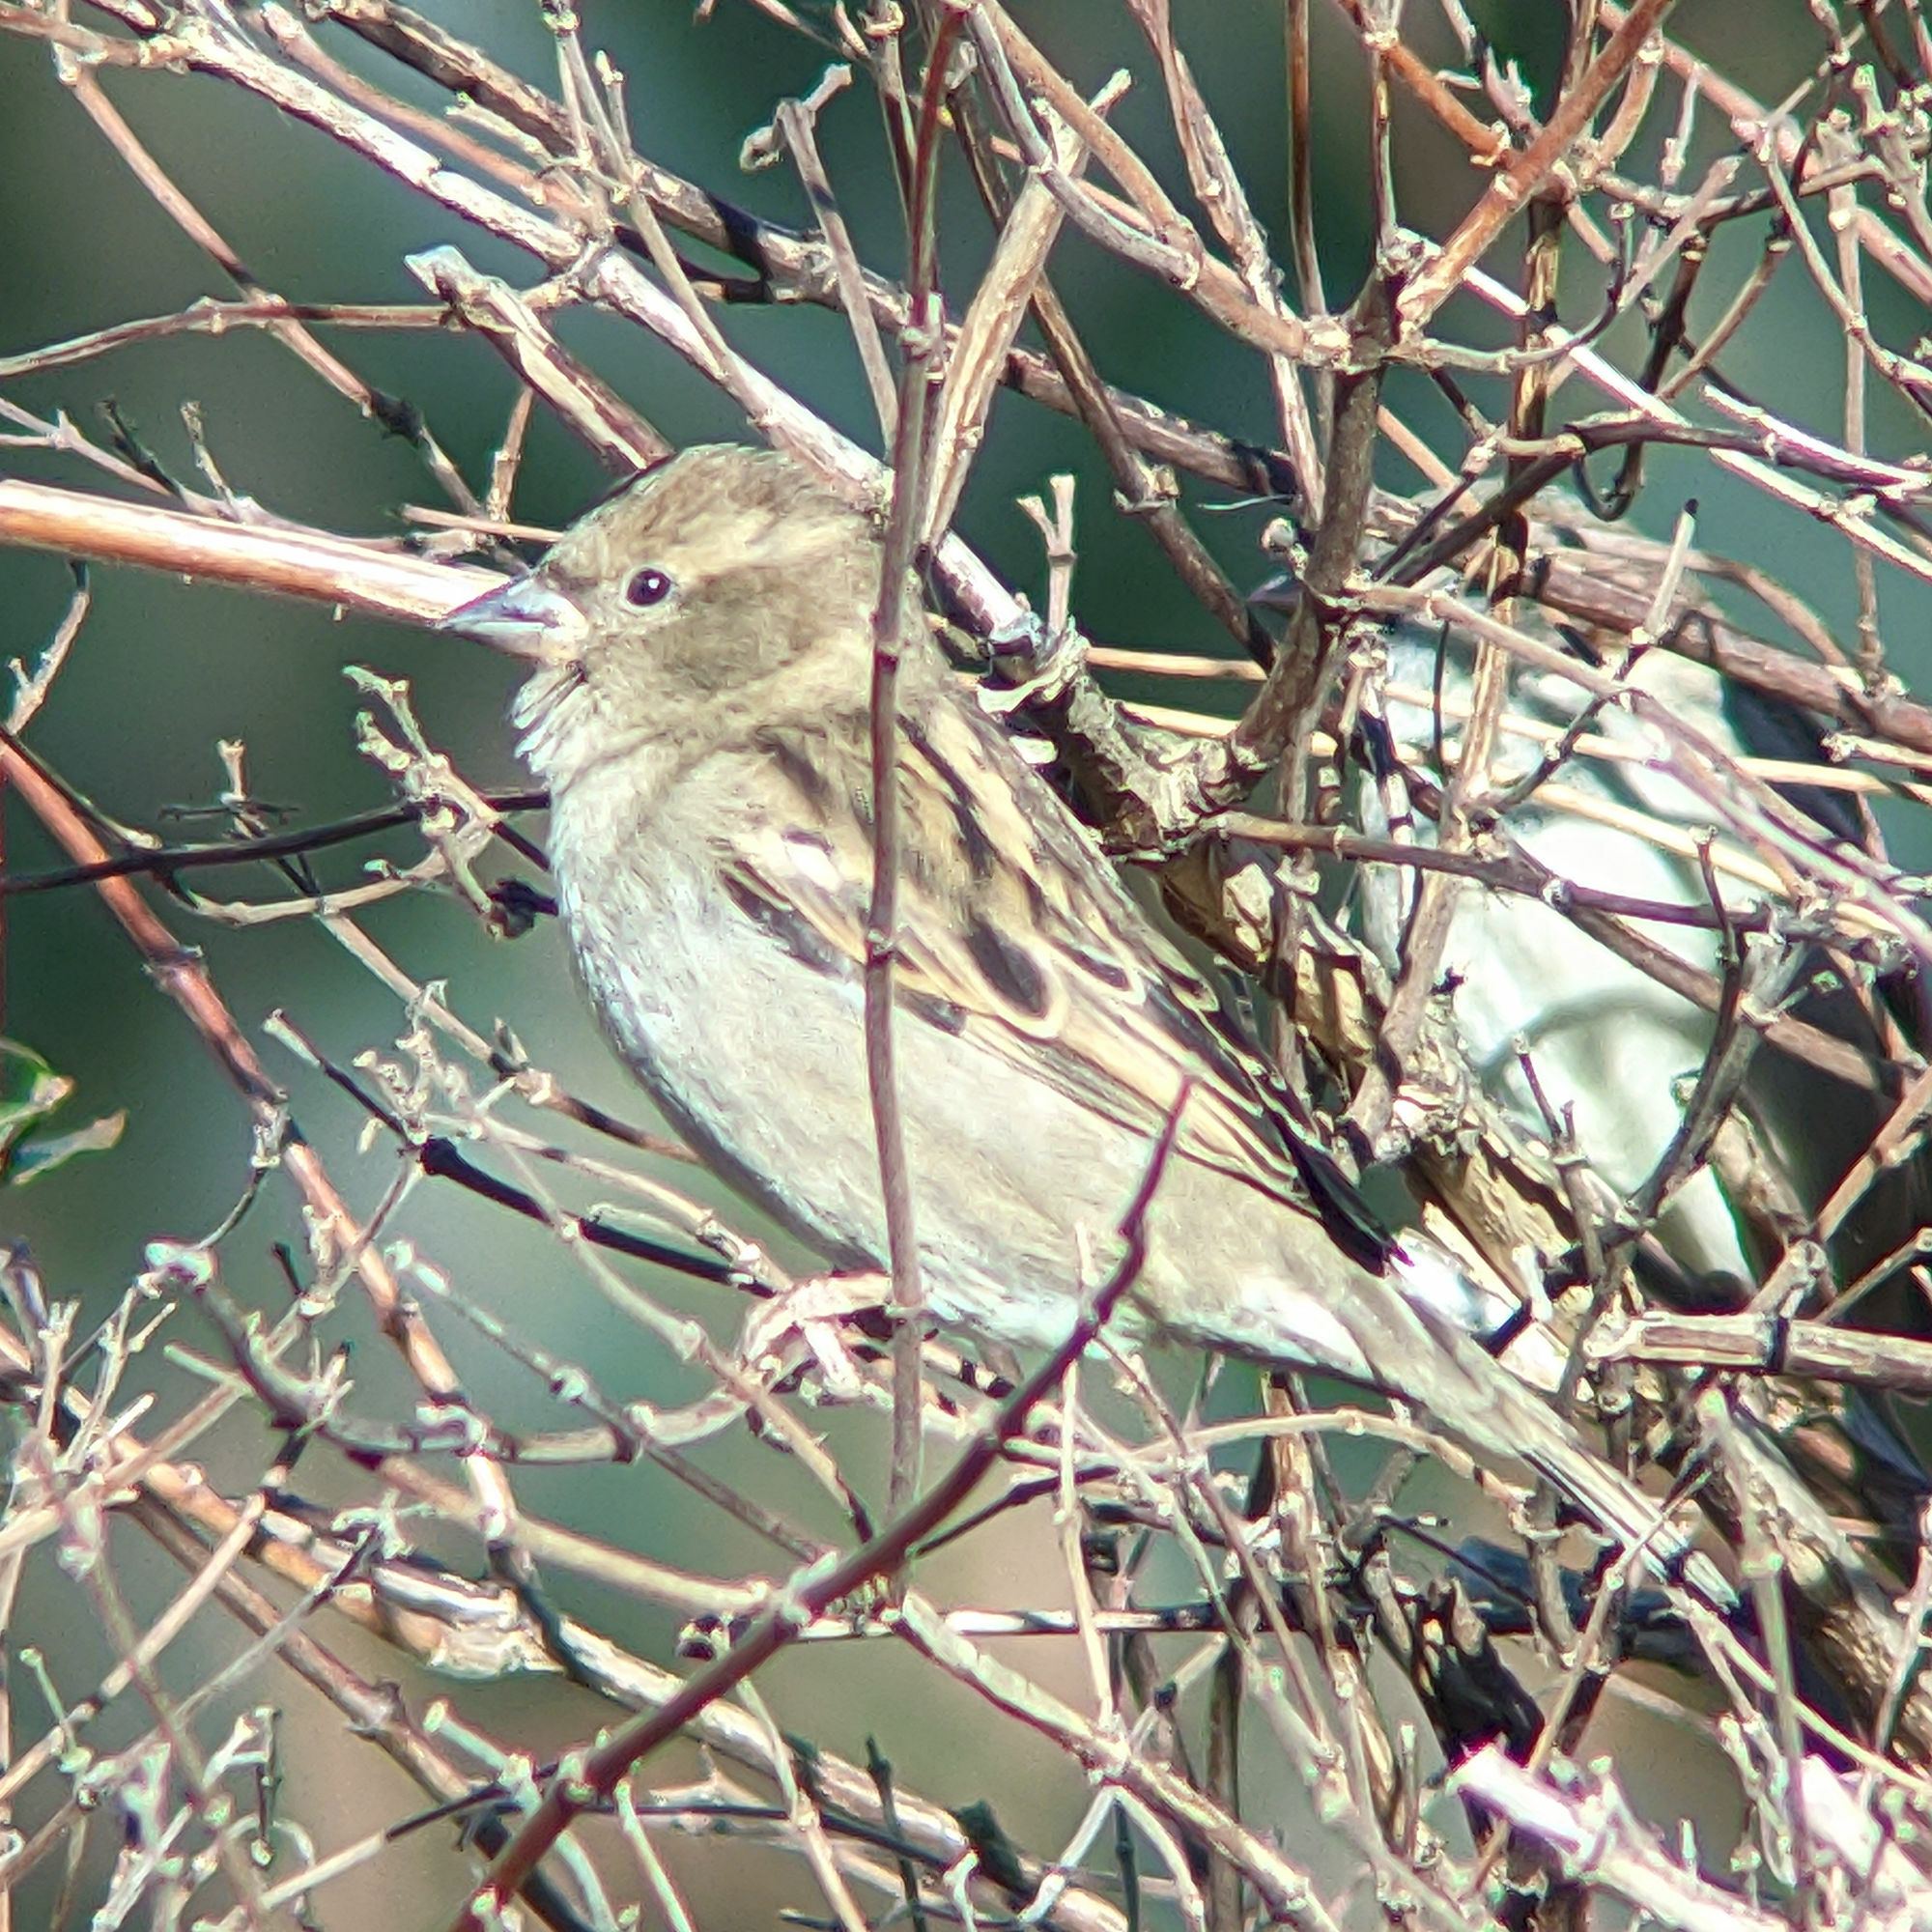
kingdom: Animalia
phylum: Chordata
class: Aves
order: Passeriformes
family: Passeridae
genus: Passer
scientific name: Passer domesticus
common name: House sparrow
